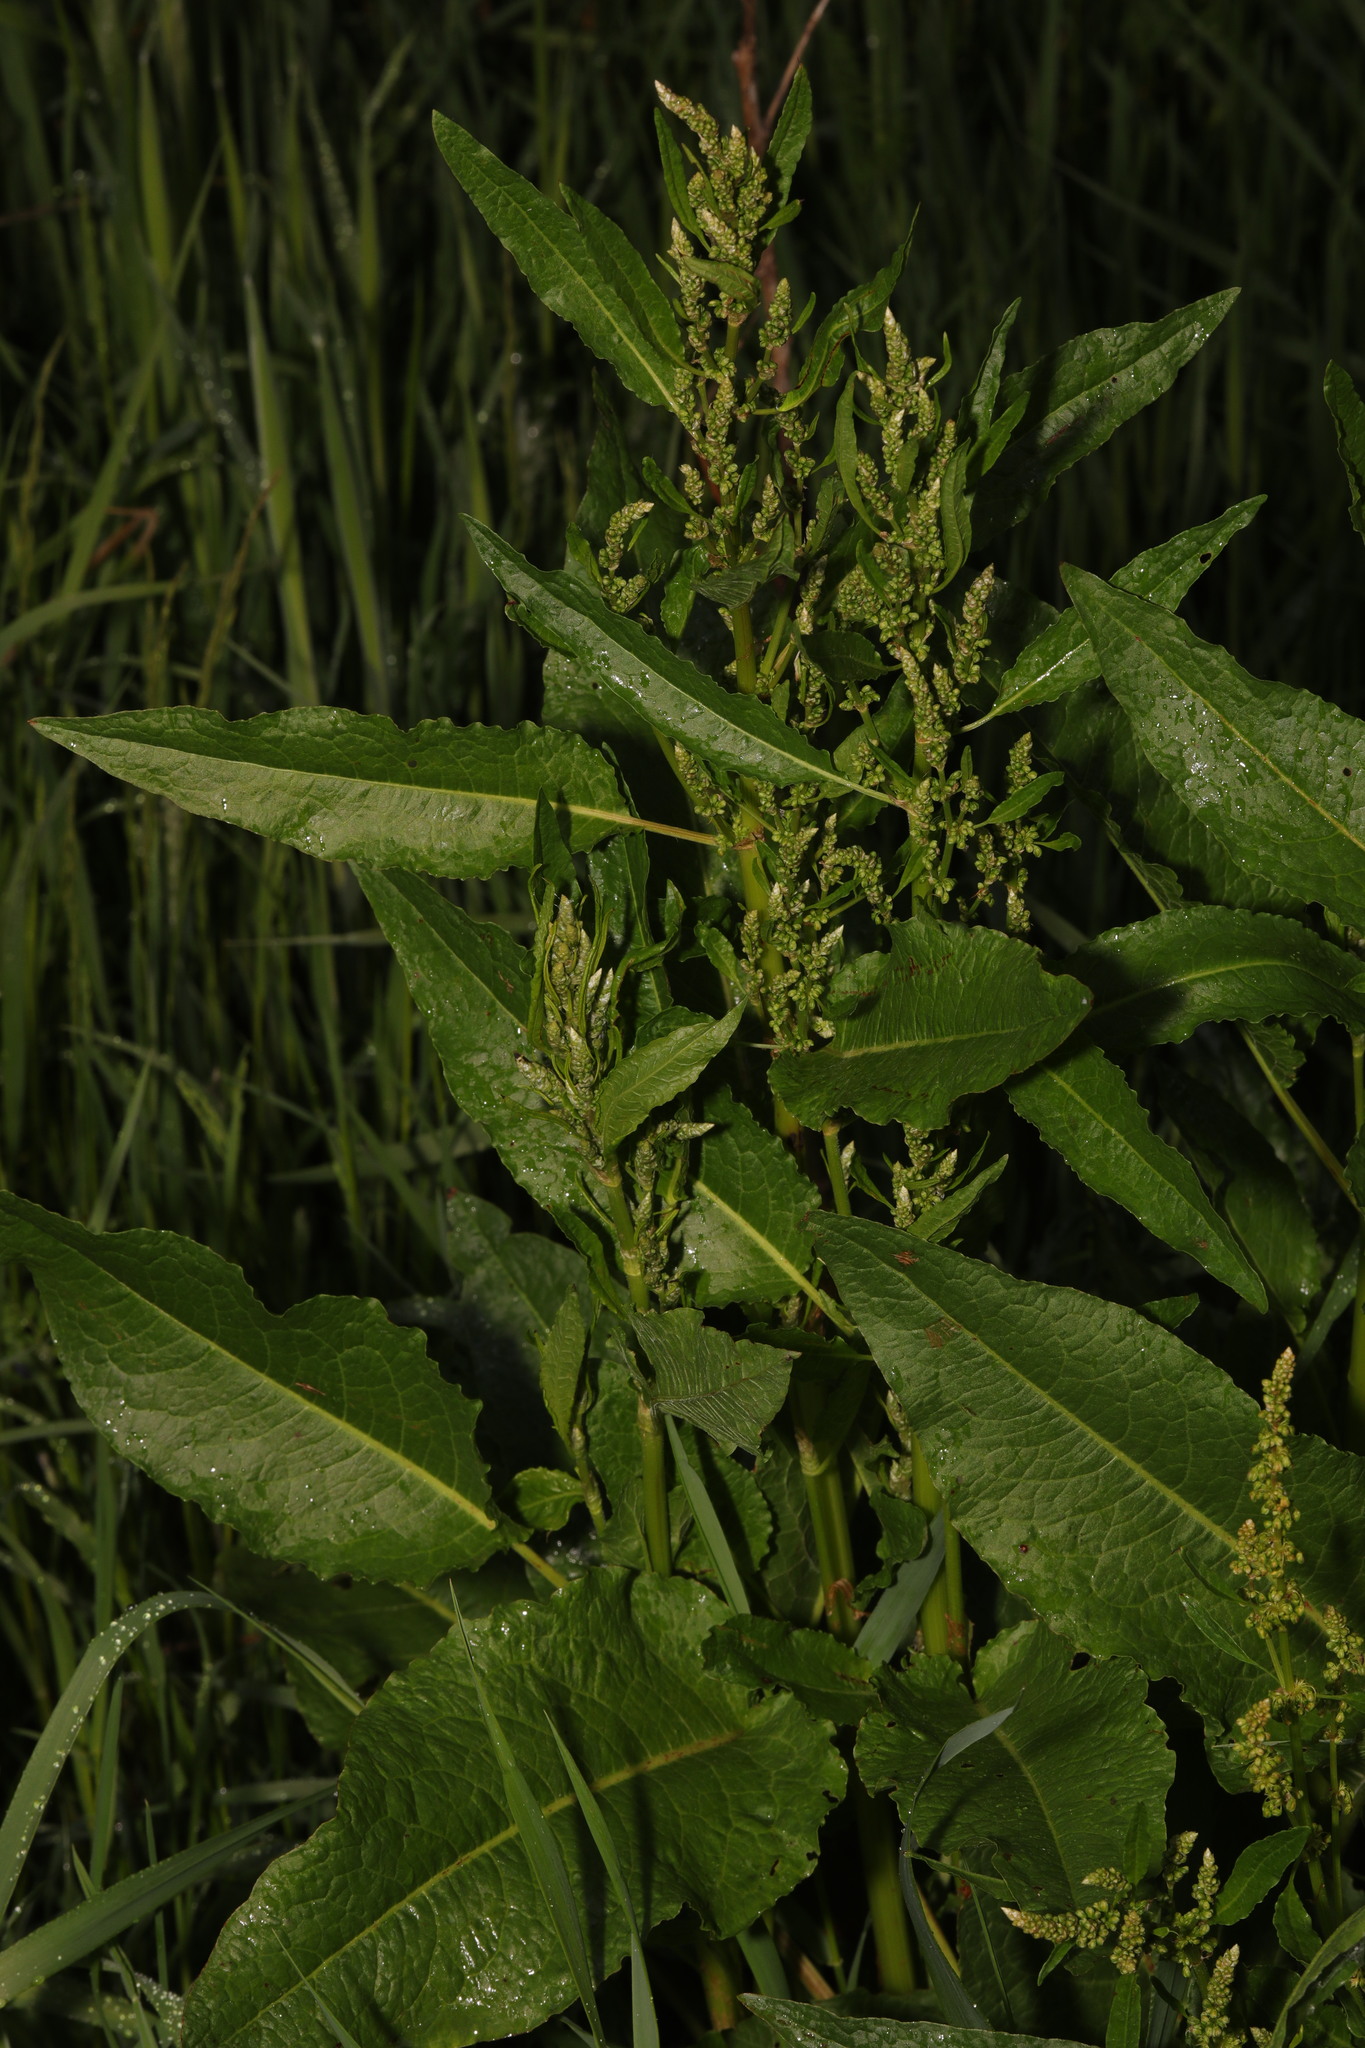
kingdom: Plantae
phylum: Tracheophyta
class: Magnoliopsida
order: Caryophyllales
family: Polygonaceae
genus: Rumex
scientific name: Rumex obtusifolius
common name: Bitter dock
